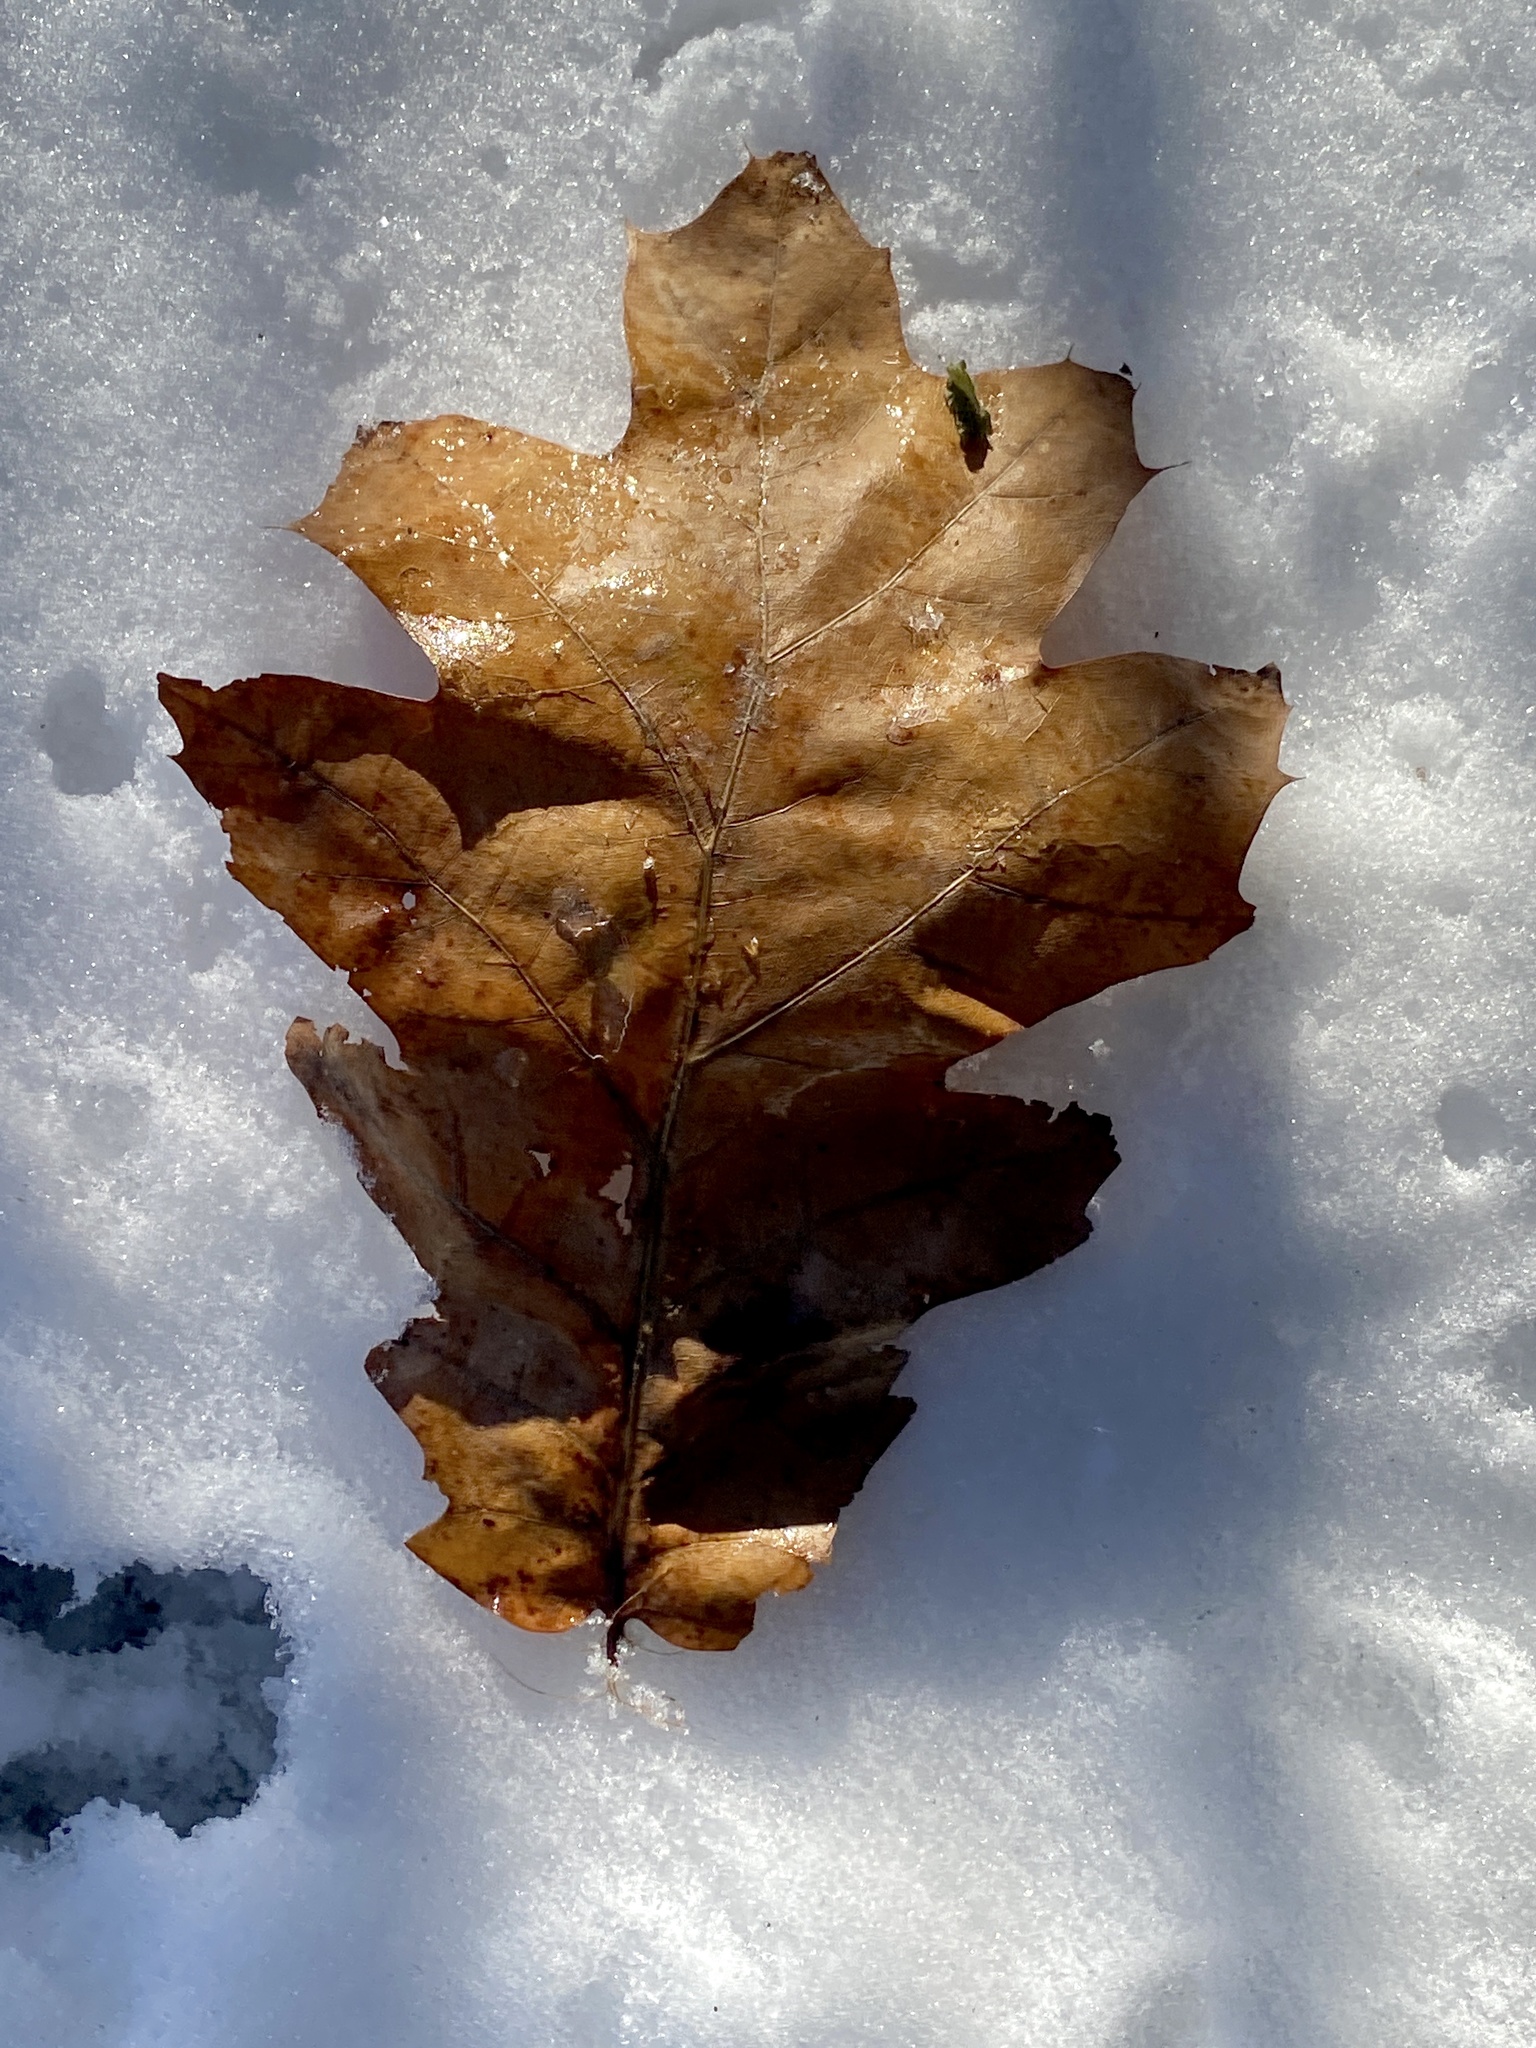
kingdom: Plantae
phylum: Tracheophyta
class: Magnoliopsida
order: Fagales
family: Fagaceae
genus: Quercus
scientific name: Quercus
